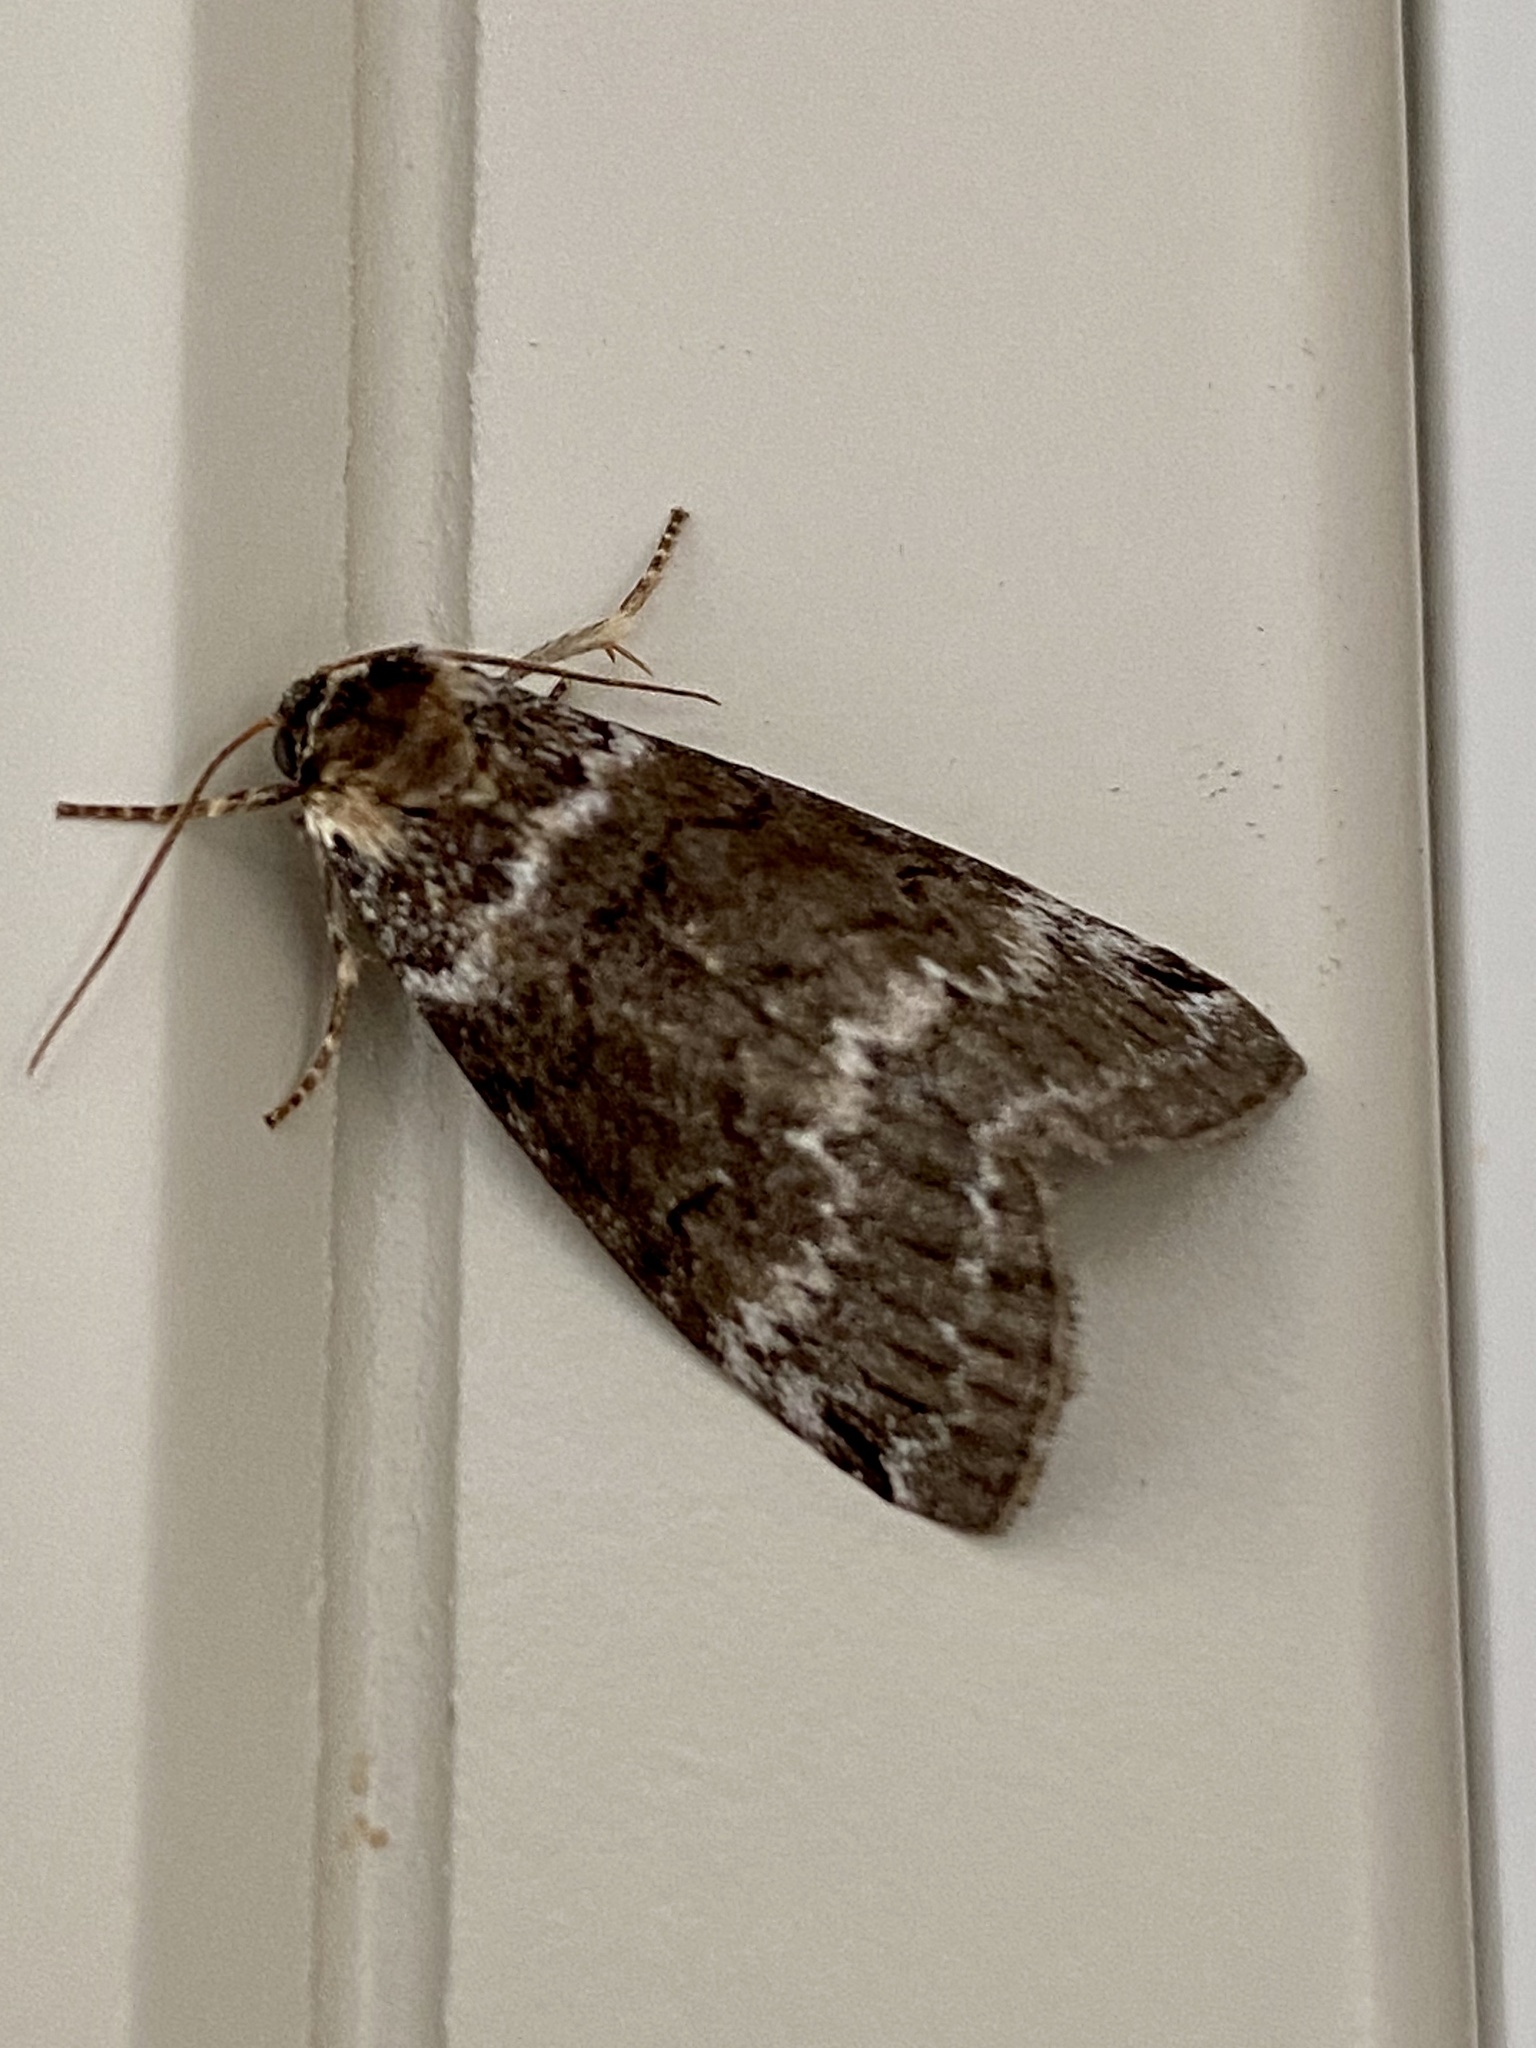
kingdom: Animalia
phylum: Arthropoda
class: Insecta
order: Lepidoptera
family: Drepanidae
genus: Tetheella
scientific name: Tetheella fluctuosa
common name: Satin lutestring
